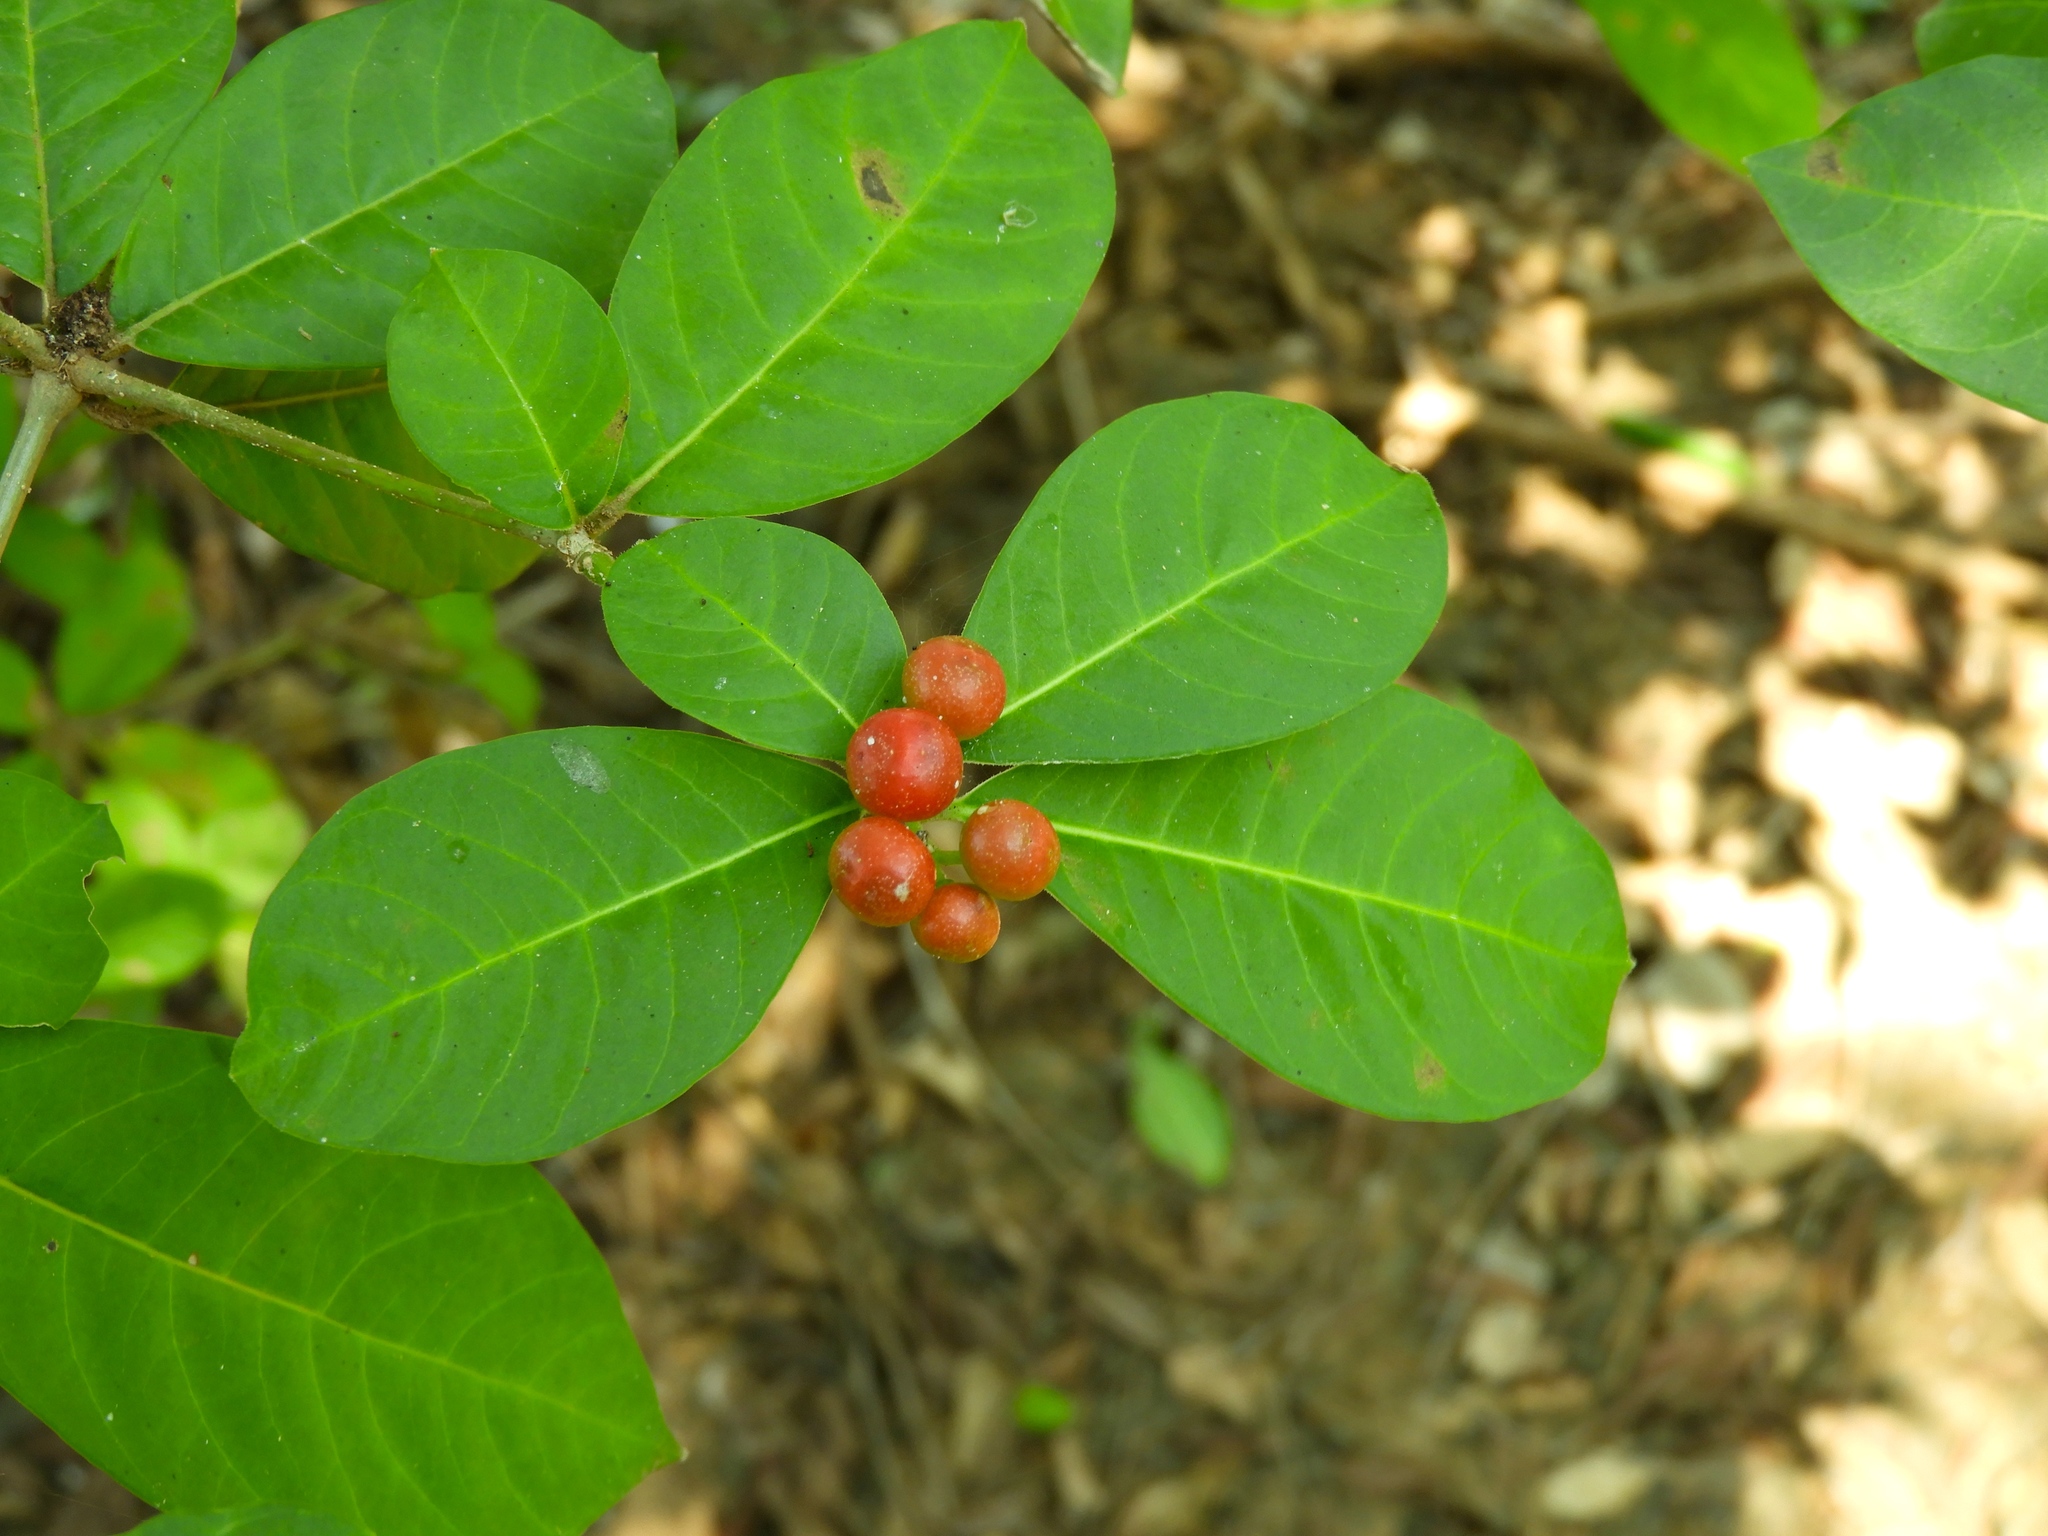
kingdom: Plantae
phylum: Tracheophyta
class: Magnoliopsida
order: Gentianales
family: Apocynaceae
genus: Rauvolfia
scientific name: Rauvolfia tetraphylla
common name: Four-leaf devil-pepper
